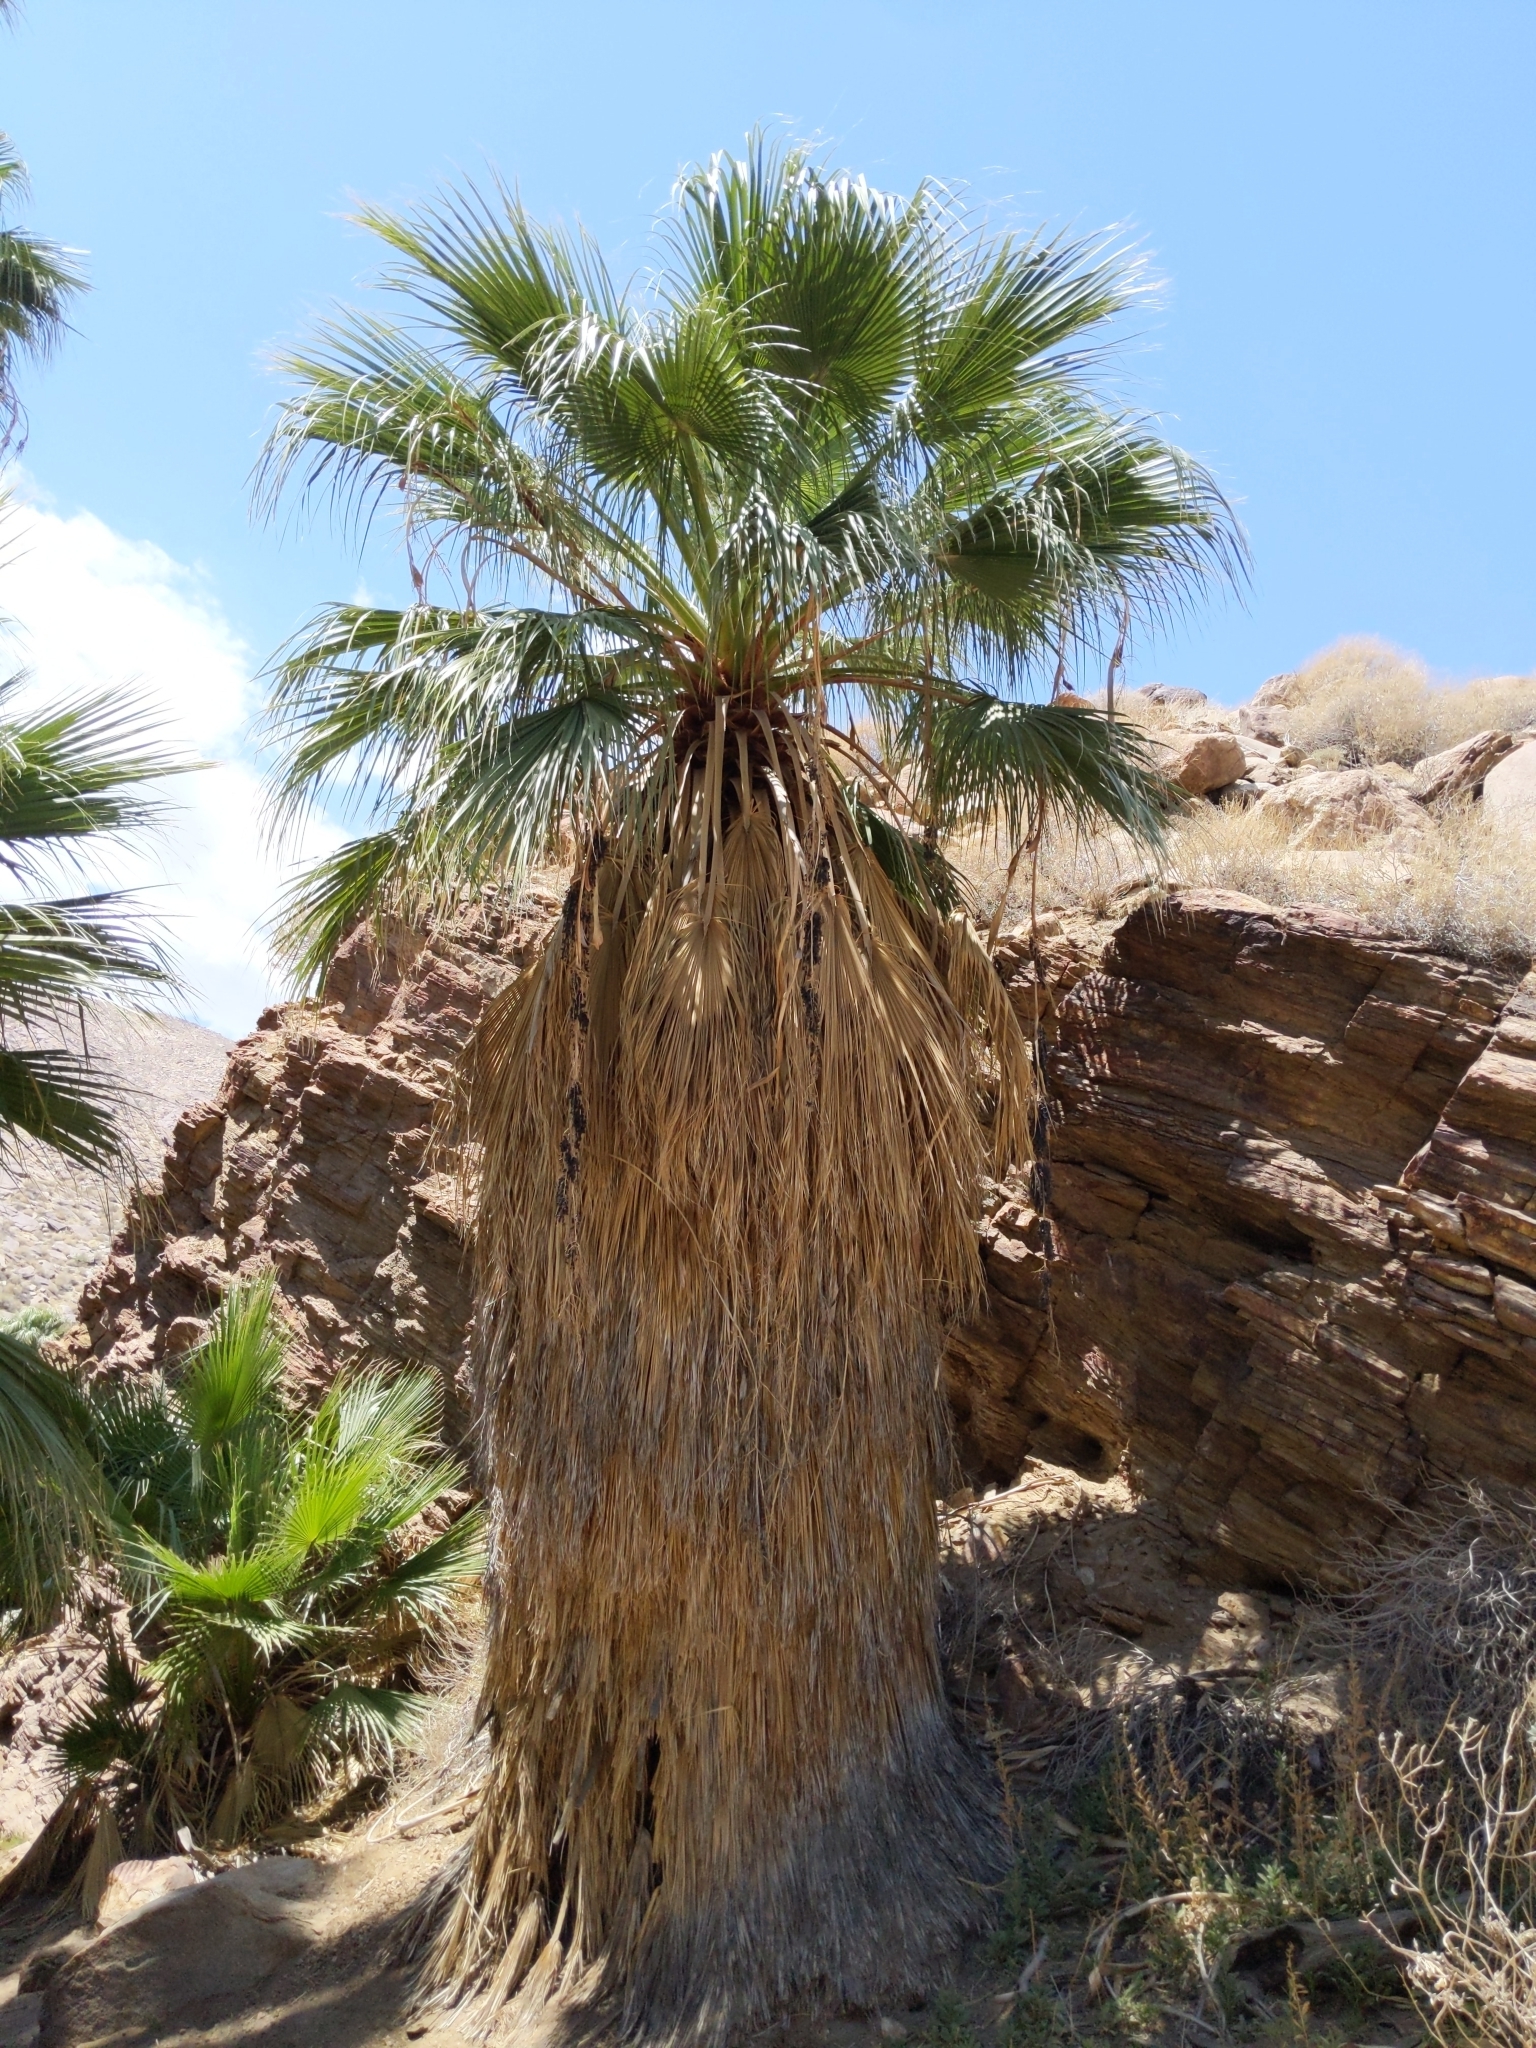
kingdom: Plantae
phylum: Tracheophyta
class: Liliopsida
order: Arecales
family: Arecaceae
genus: Washingtonia
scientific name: Washingtonia filifera
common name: California fan palm
